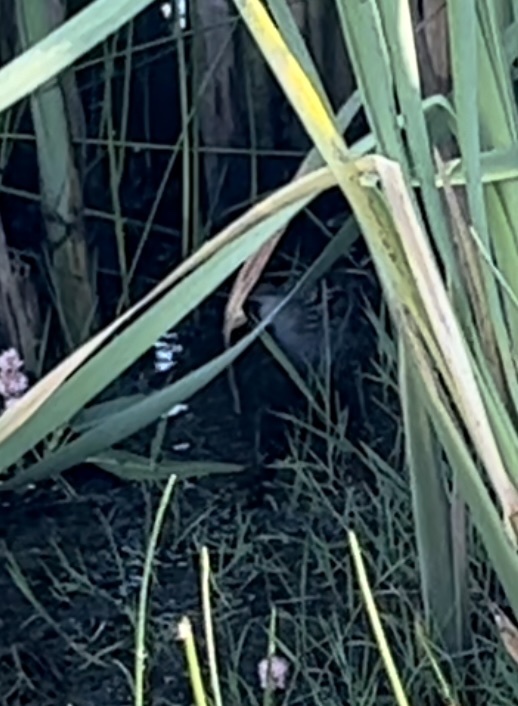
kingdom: Animalia
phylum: Chordata
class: Aves
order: Gruiformes
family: Rallidae
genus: Porzana
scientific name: Porzana carolina
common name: Sora
